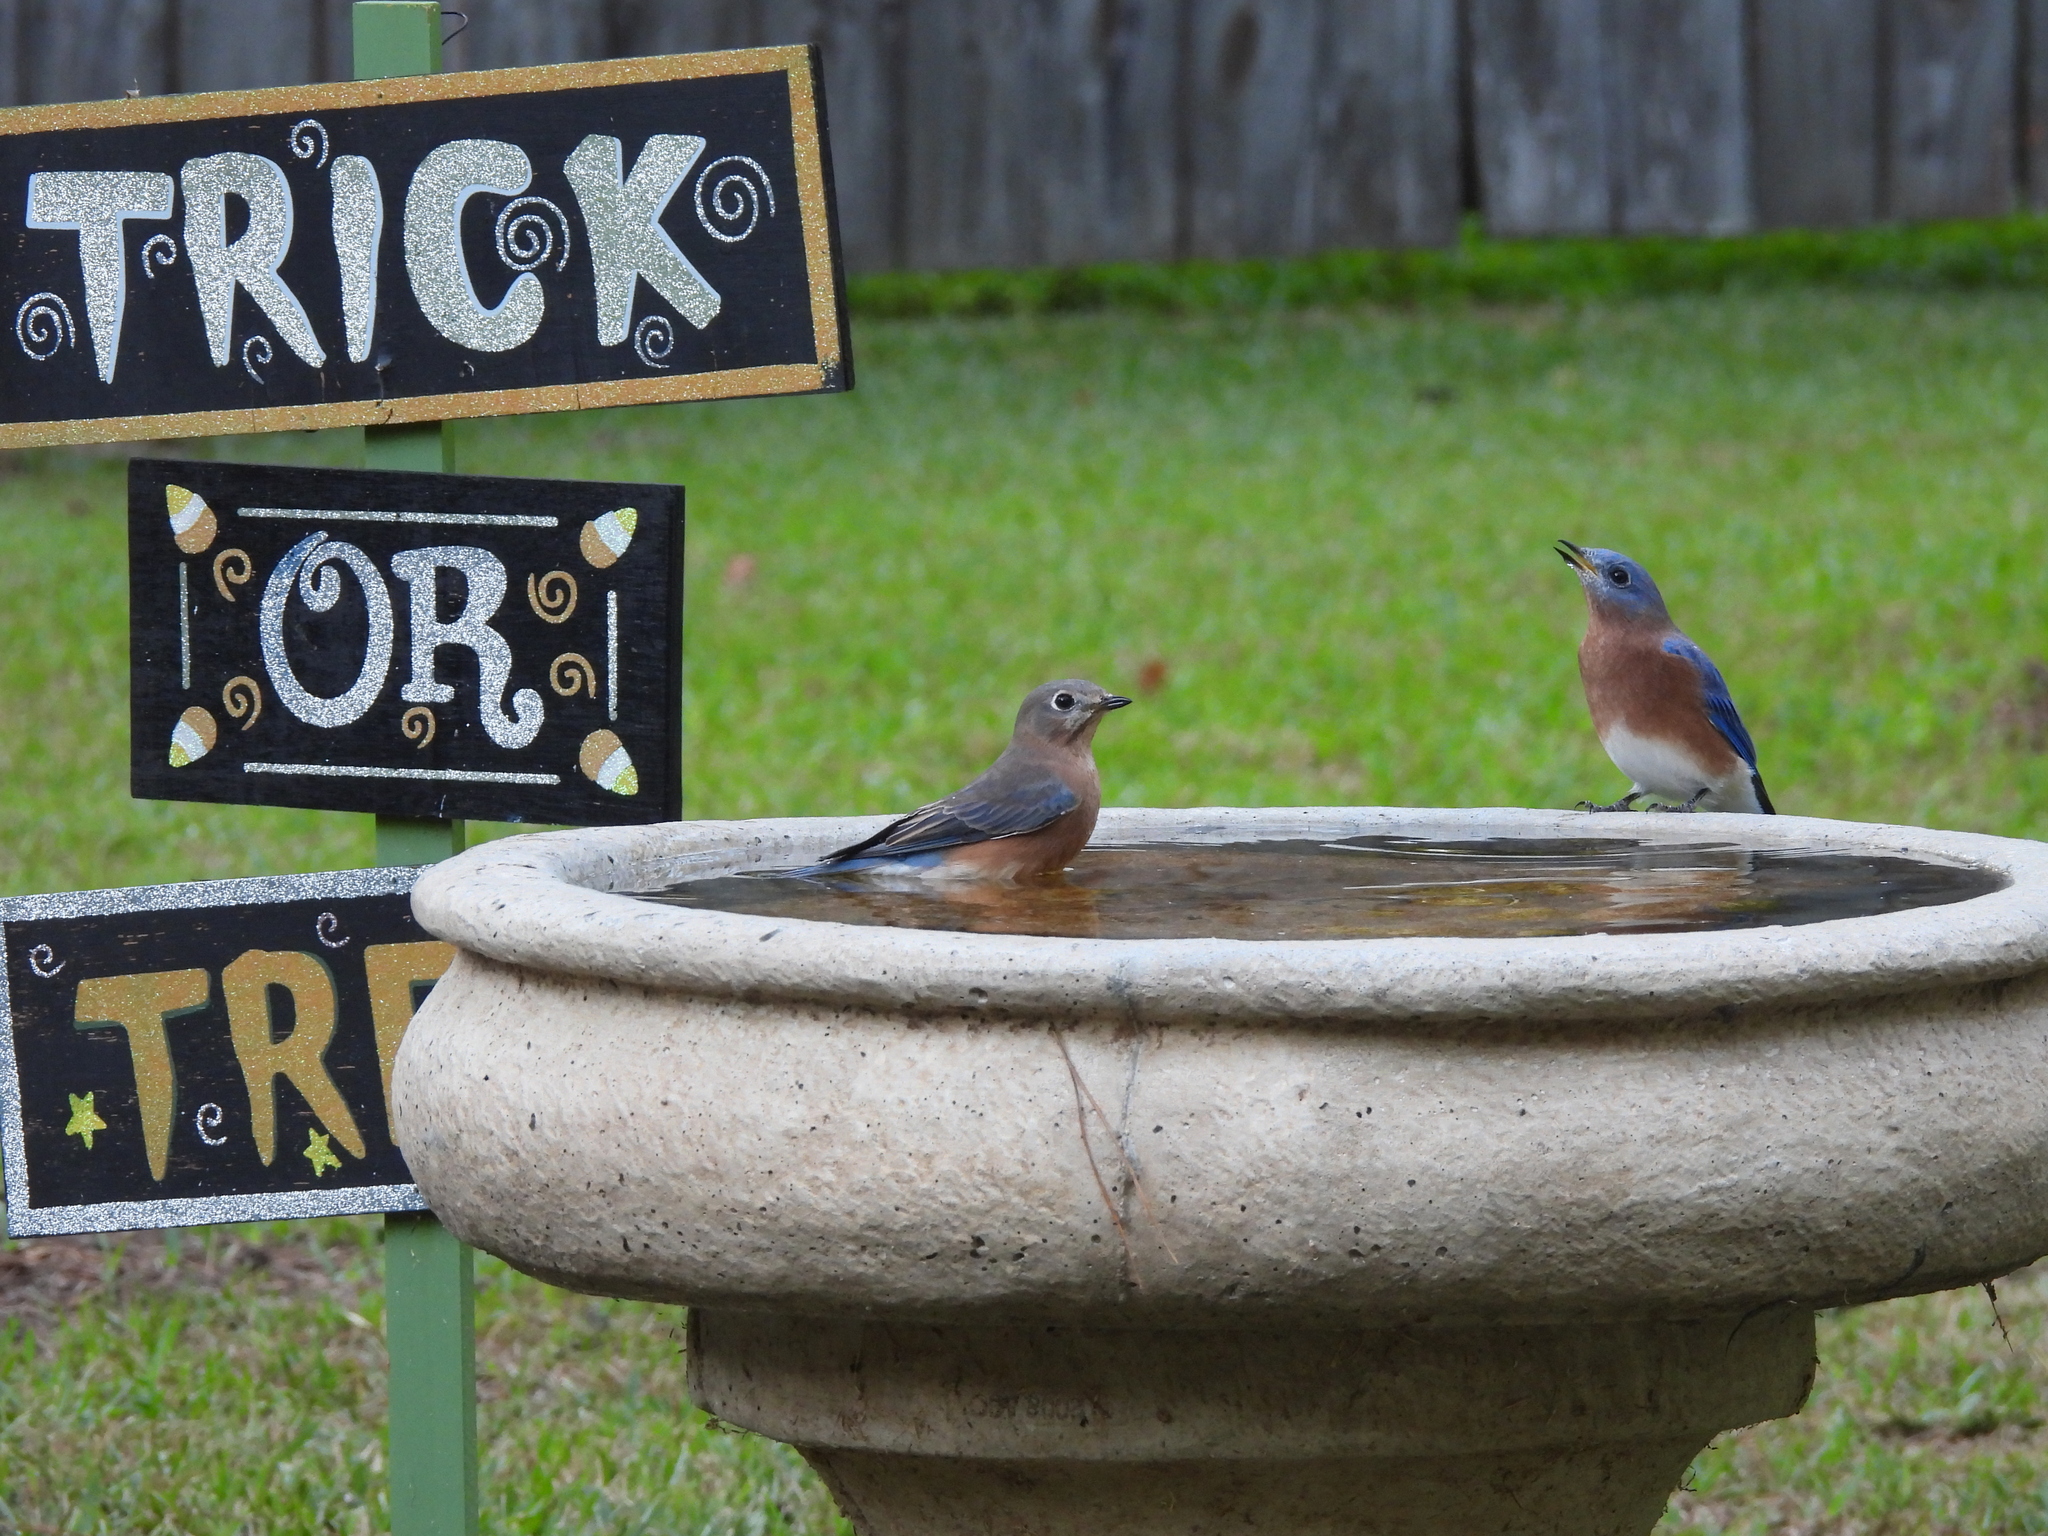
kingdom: Animalia
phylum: Chordata
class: Aves
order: Passeriformes
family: Turdidae
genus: Sialia
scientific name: Sialia sialis
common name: Eastern bluebird
